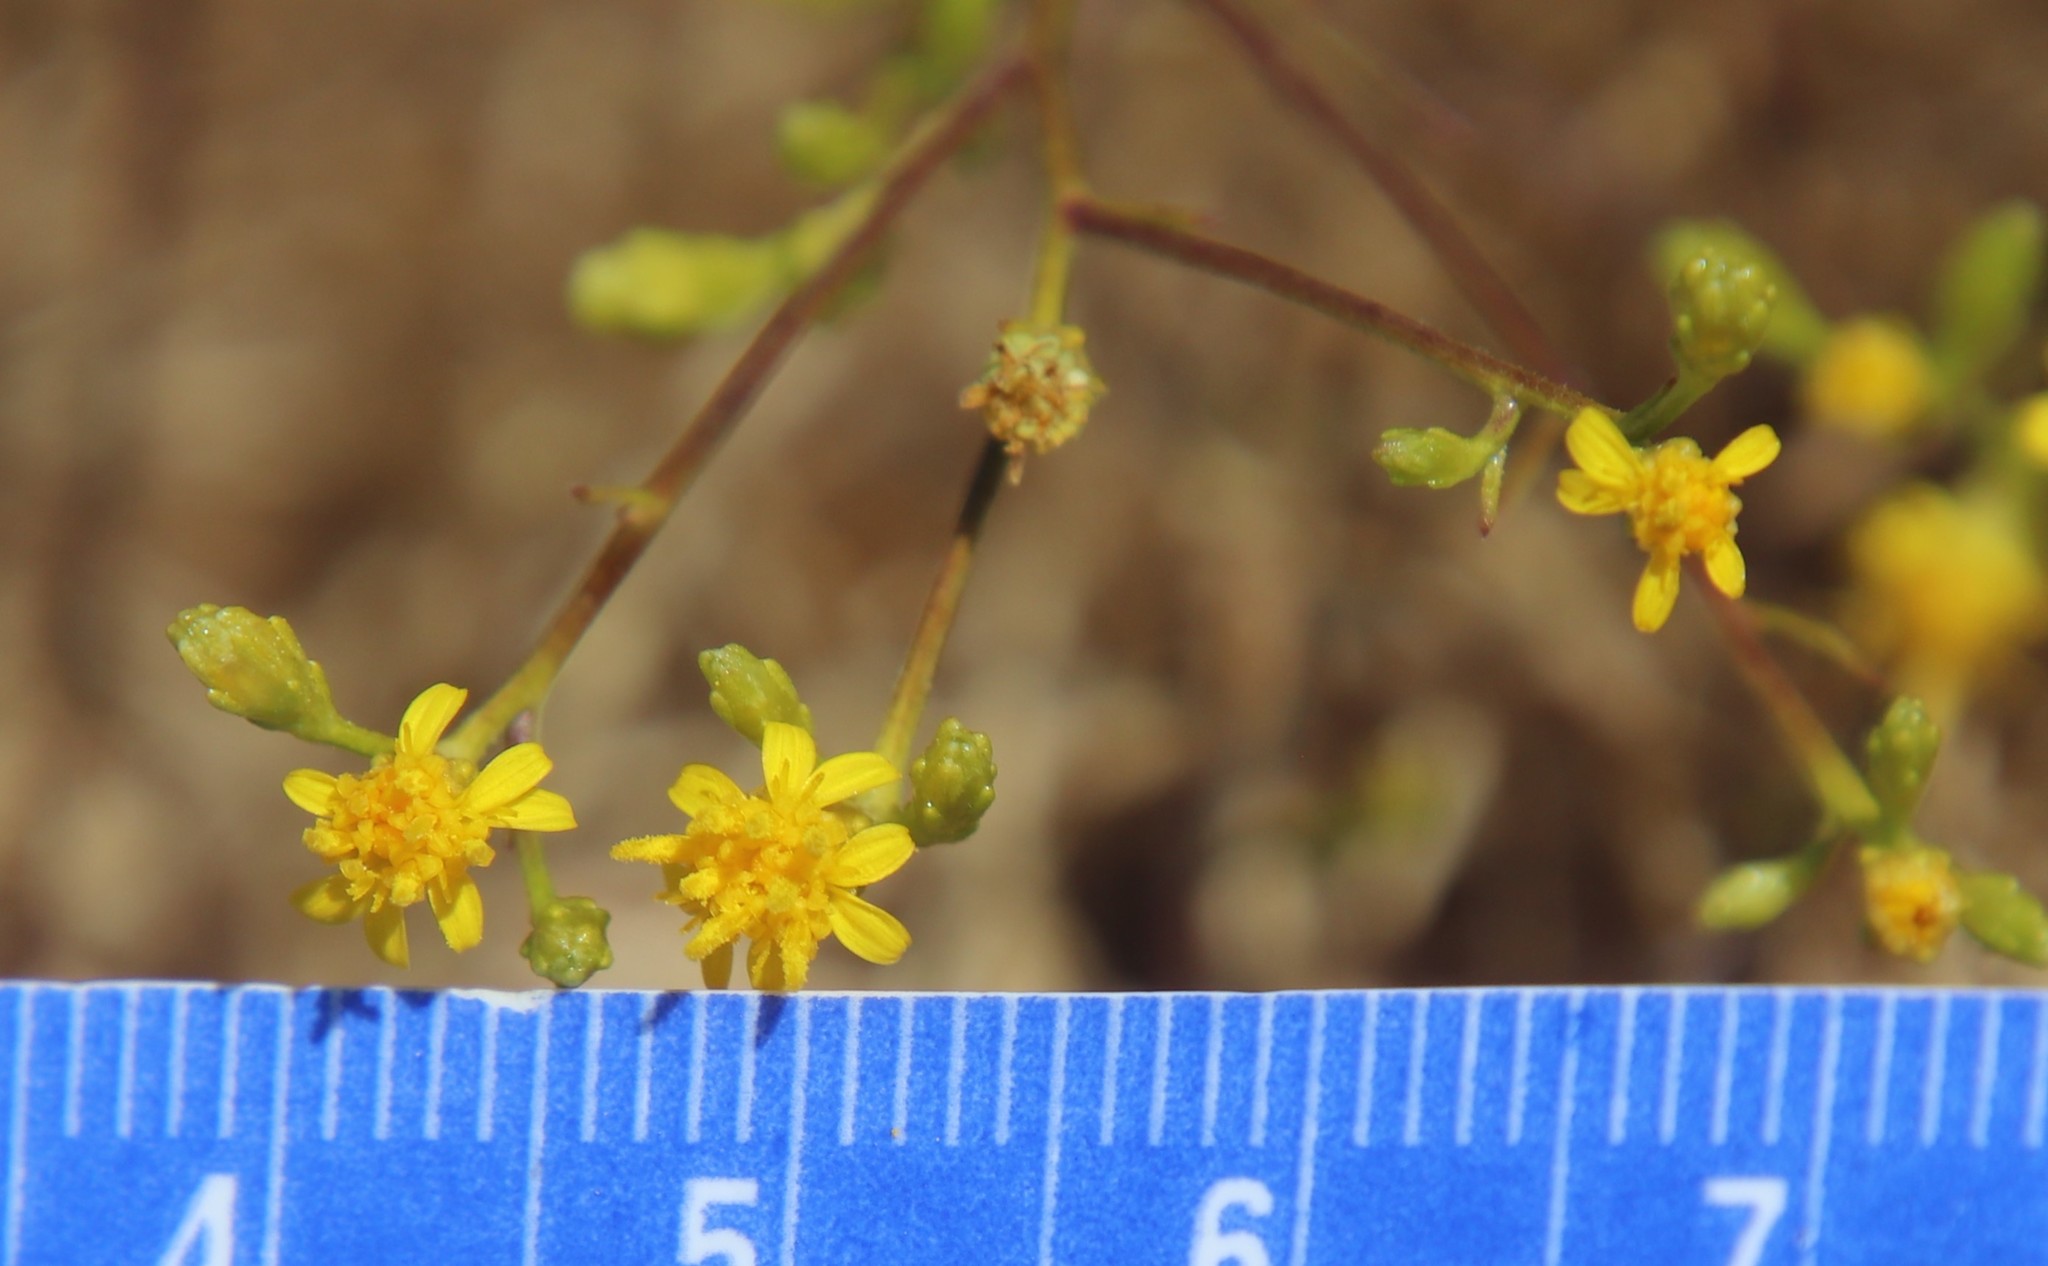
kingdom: Plantae
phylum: Tracheophyta
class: Magnoliopsida
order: Asterales
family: Asteraceae
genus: Gutierrezia
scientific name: Gutierrezia sarothrae
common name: Broom snakeweed
